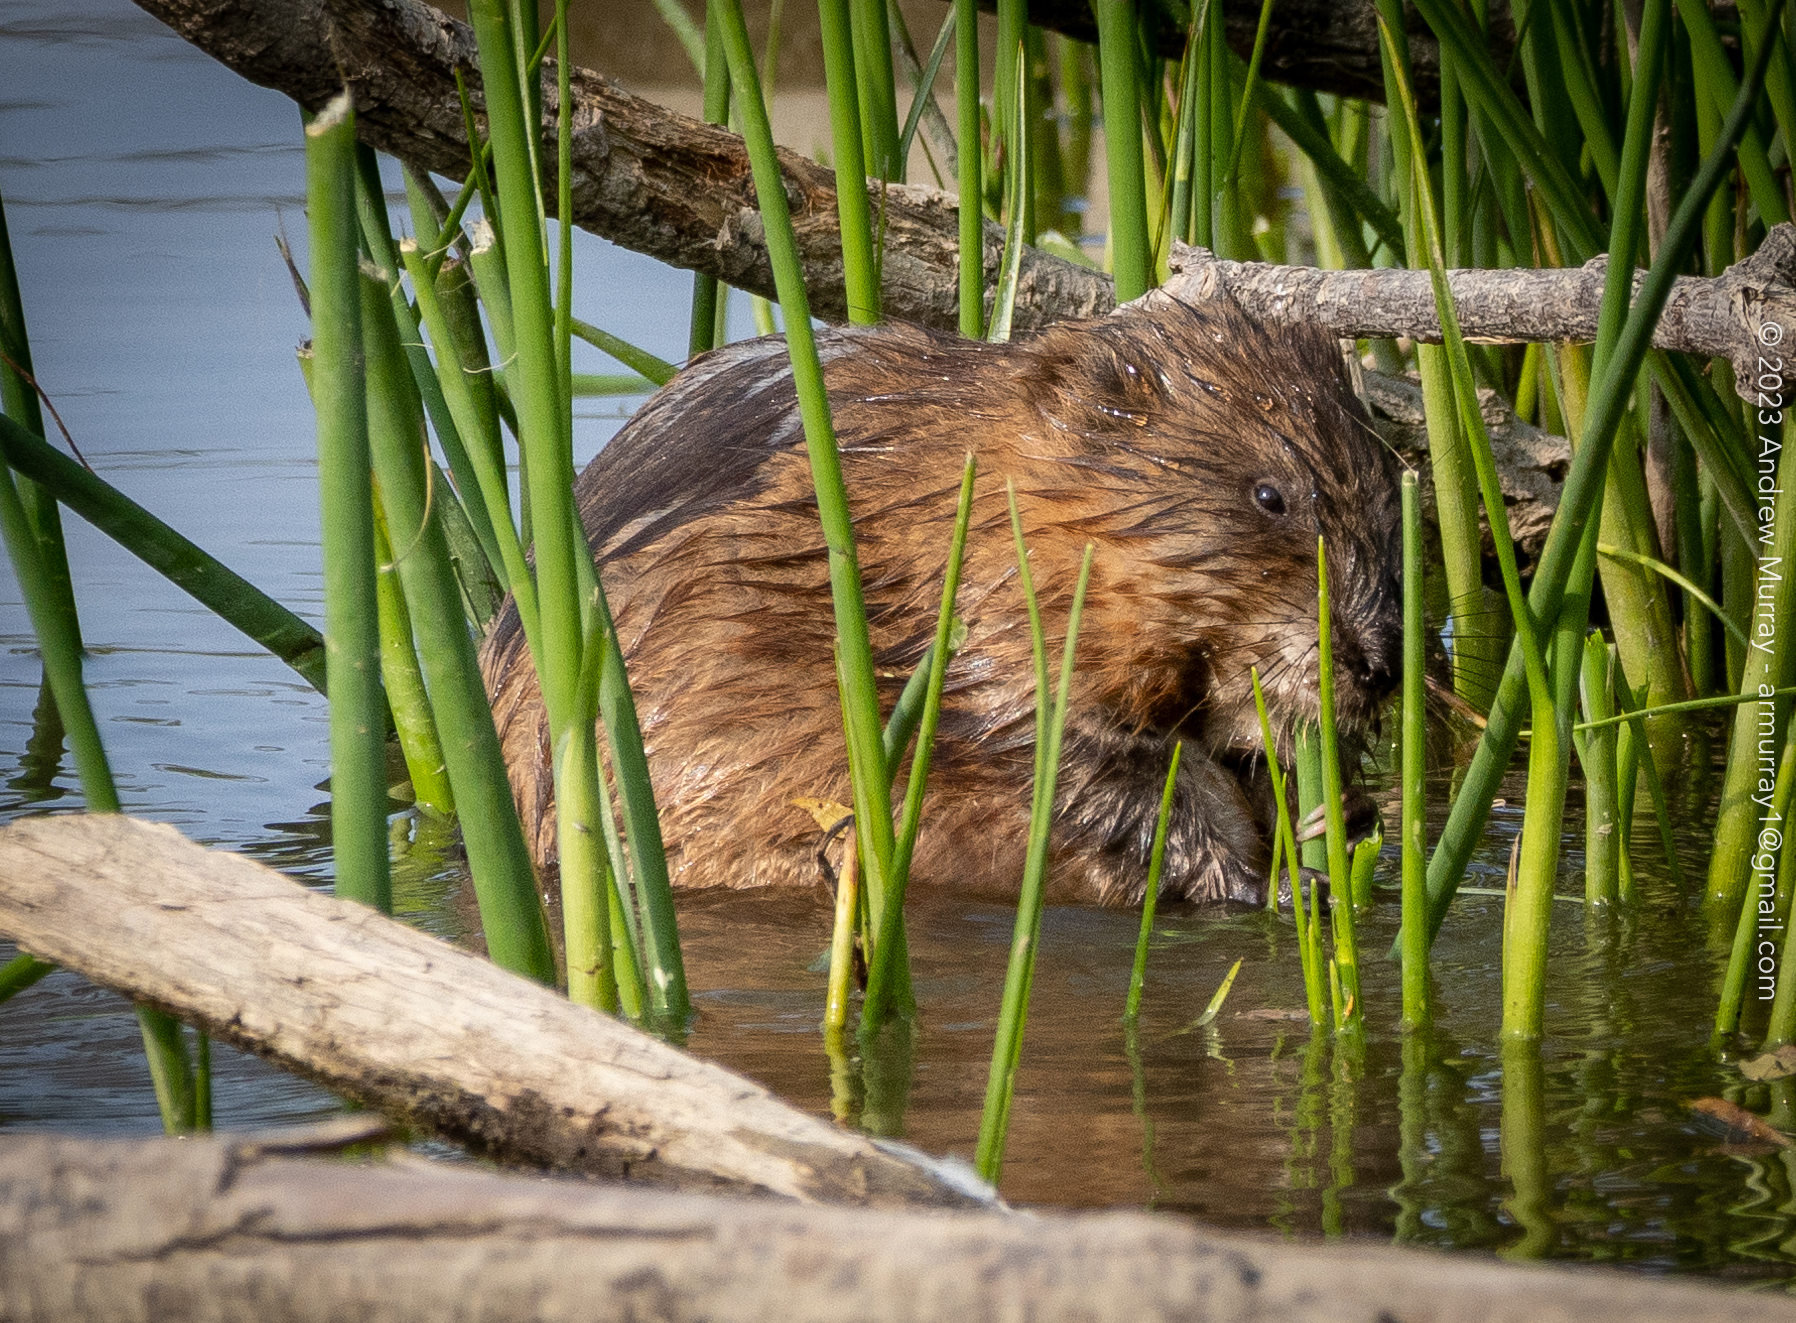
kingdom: Animalia
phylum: Chordata
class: Mammalia
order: Rodentia
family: Cricetidae
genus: Ondatra
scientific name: Ondatra zibethicus
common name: Muskrat
